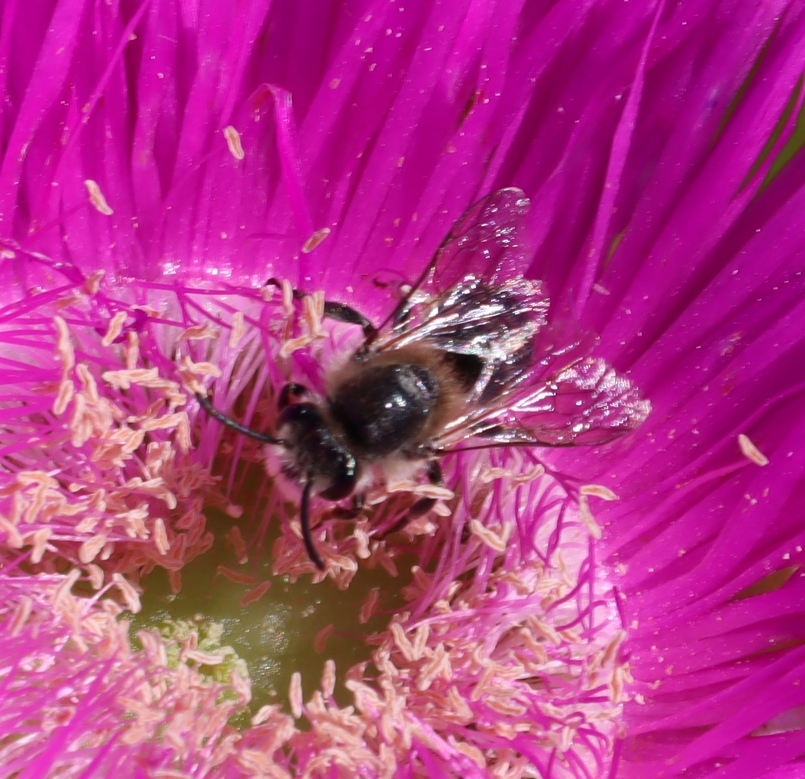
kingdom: Plantae
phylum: Tracheophyta
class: Magnoliopsida
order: Caryophyllales
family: Aizoaceae
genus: Carpobrotus
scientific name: Carpobrotus deliciosus
